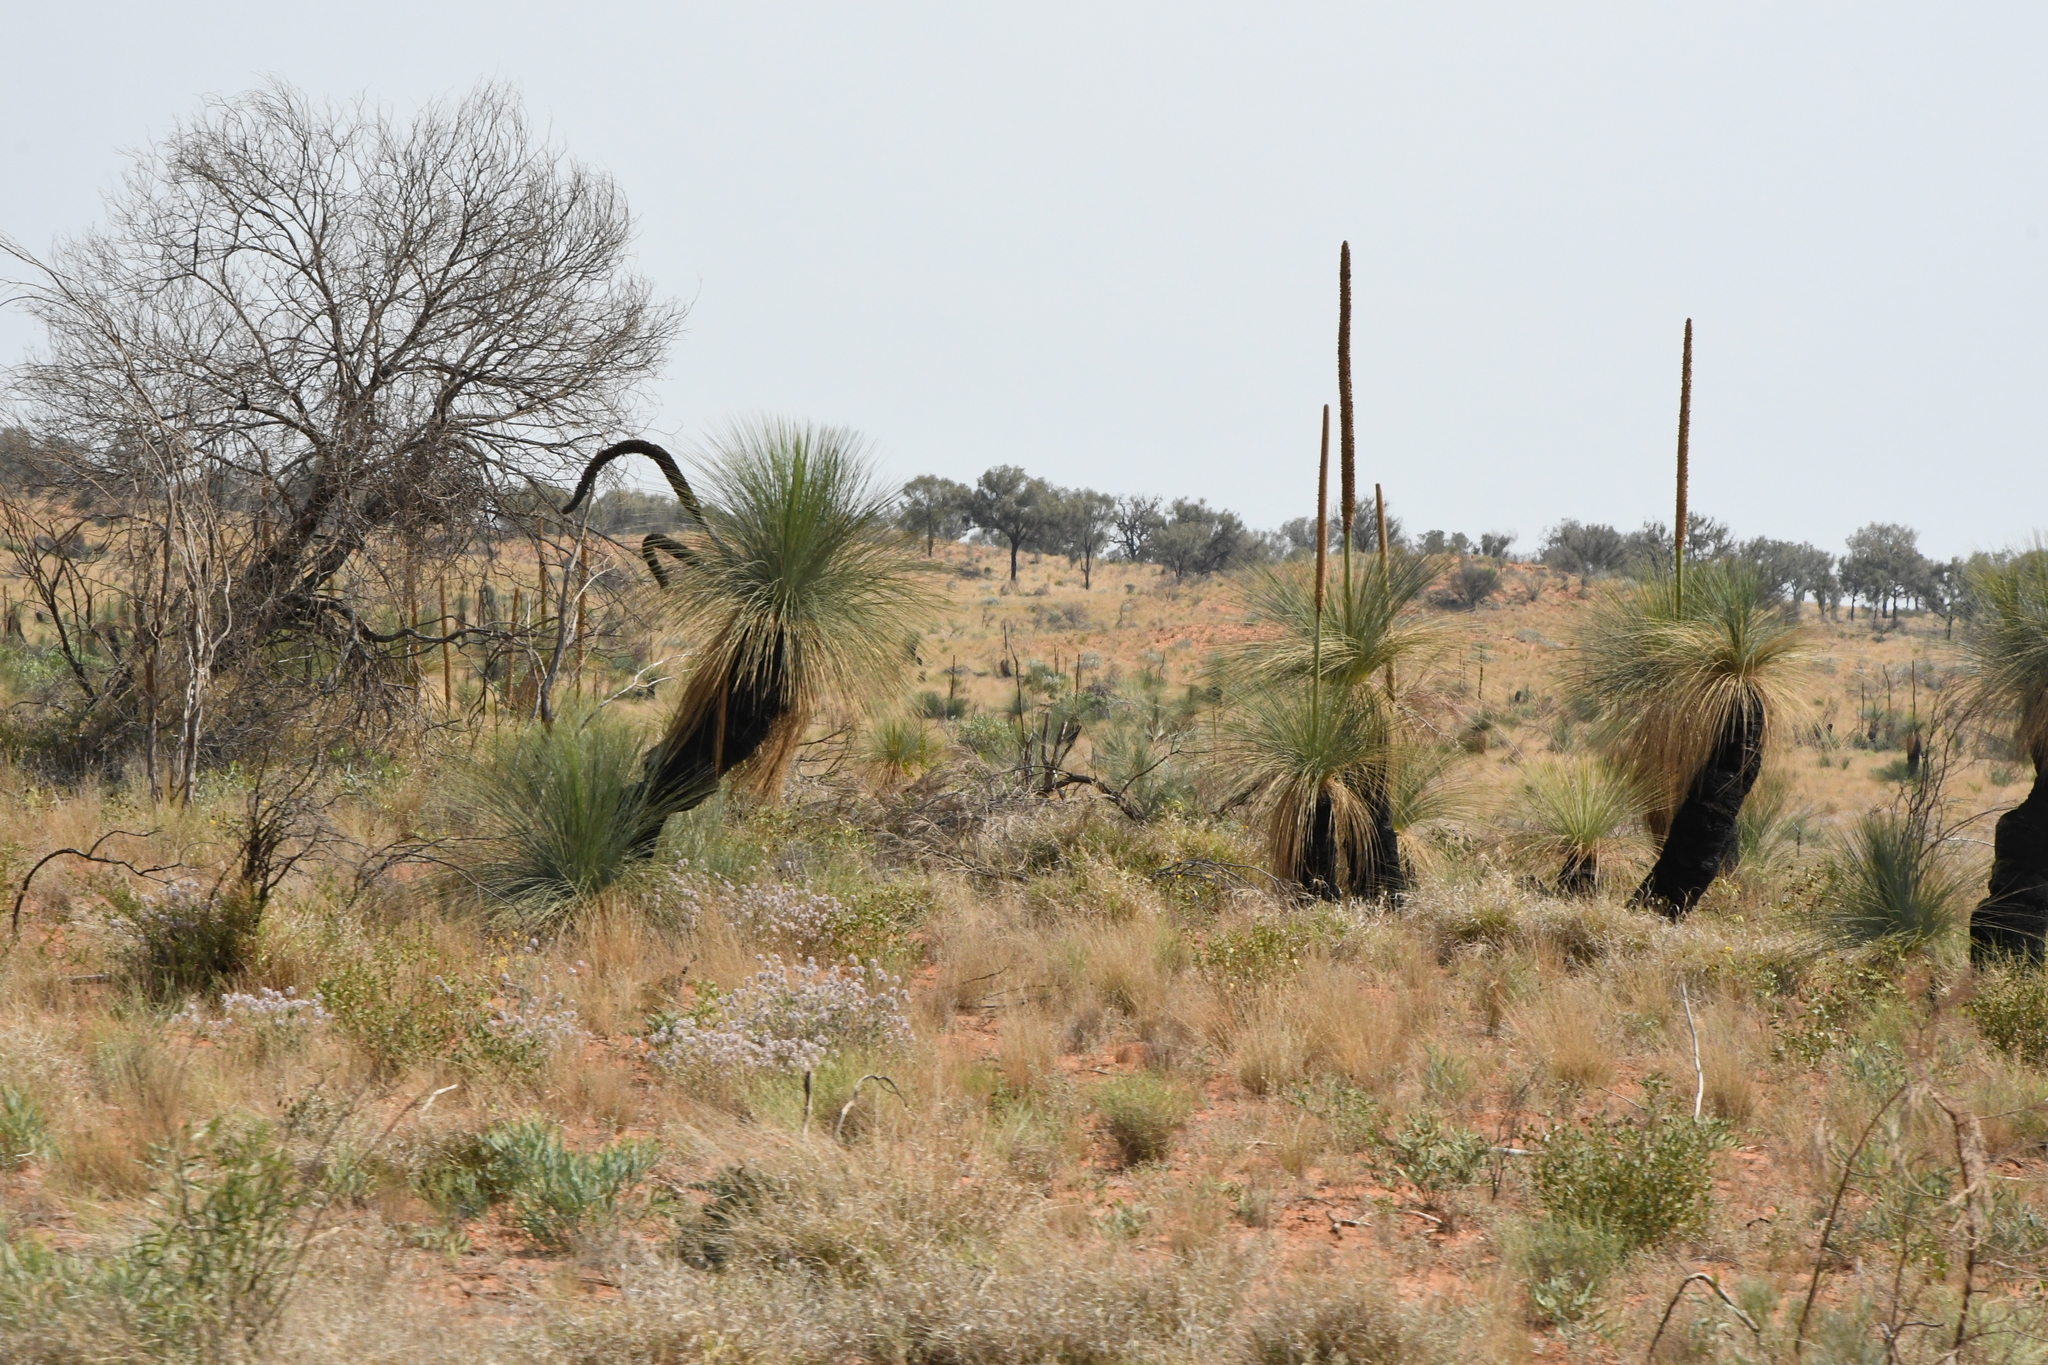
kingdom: Plantae
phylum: Tracheophyta
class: Liliopsida
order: Asparagales
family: Asphodelaceae
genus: Xanthorrhoea
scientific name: Xanthorrhoea thorntonii
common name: Cundeelee grass-tree
